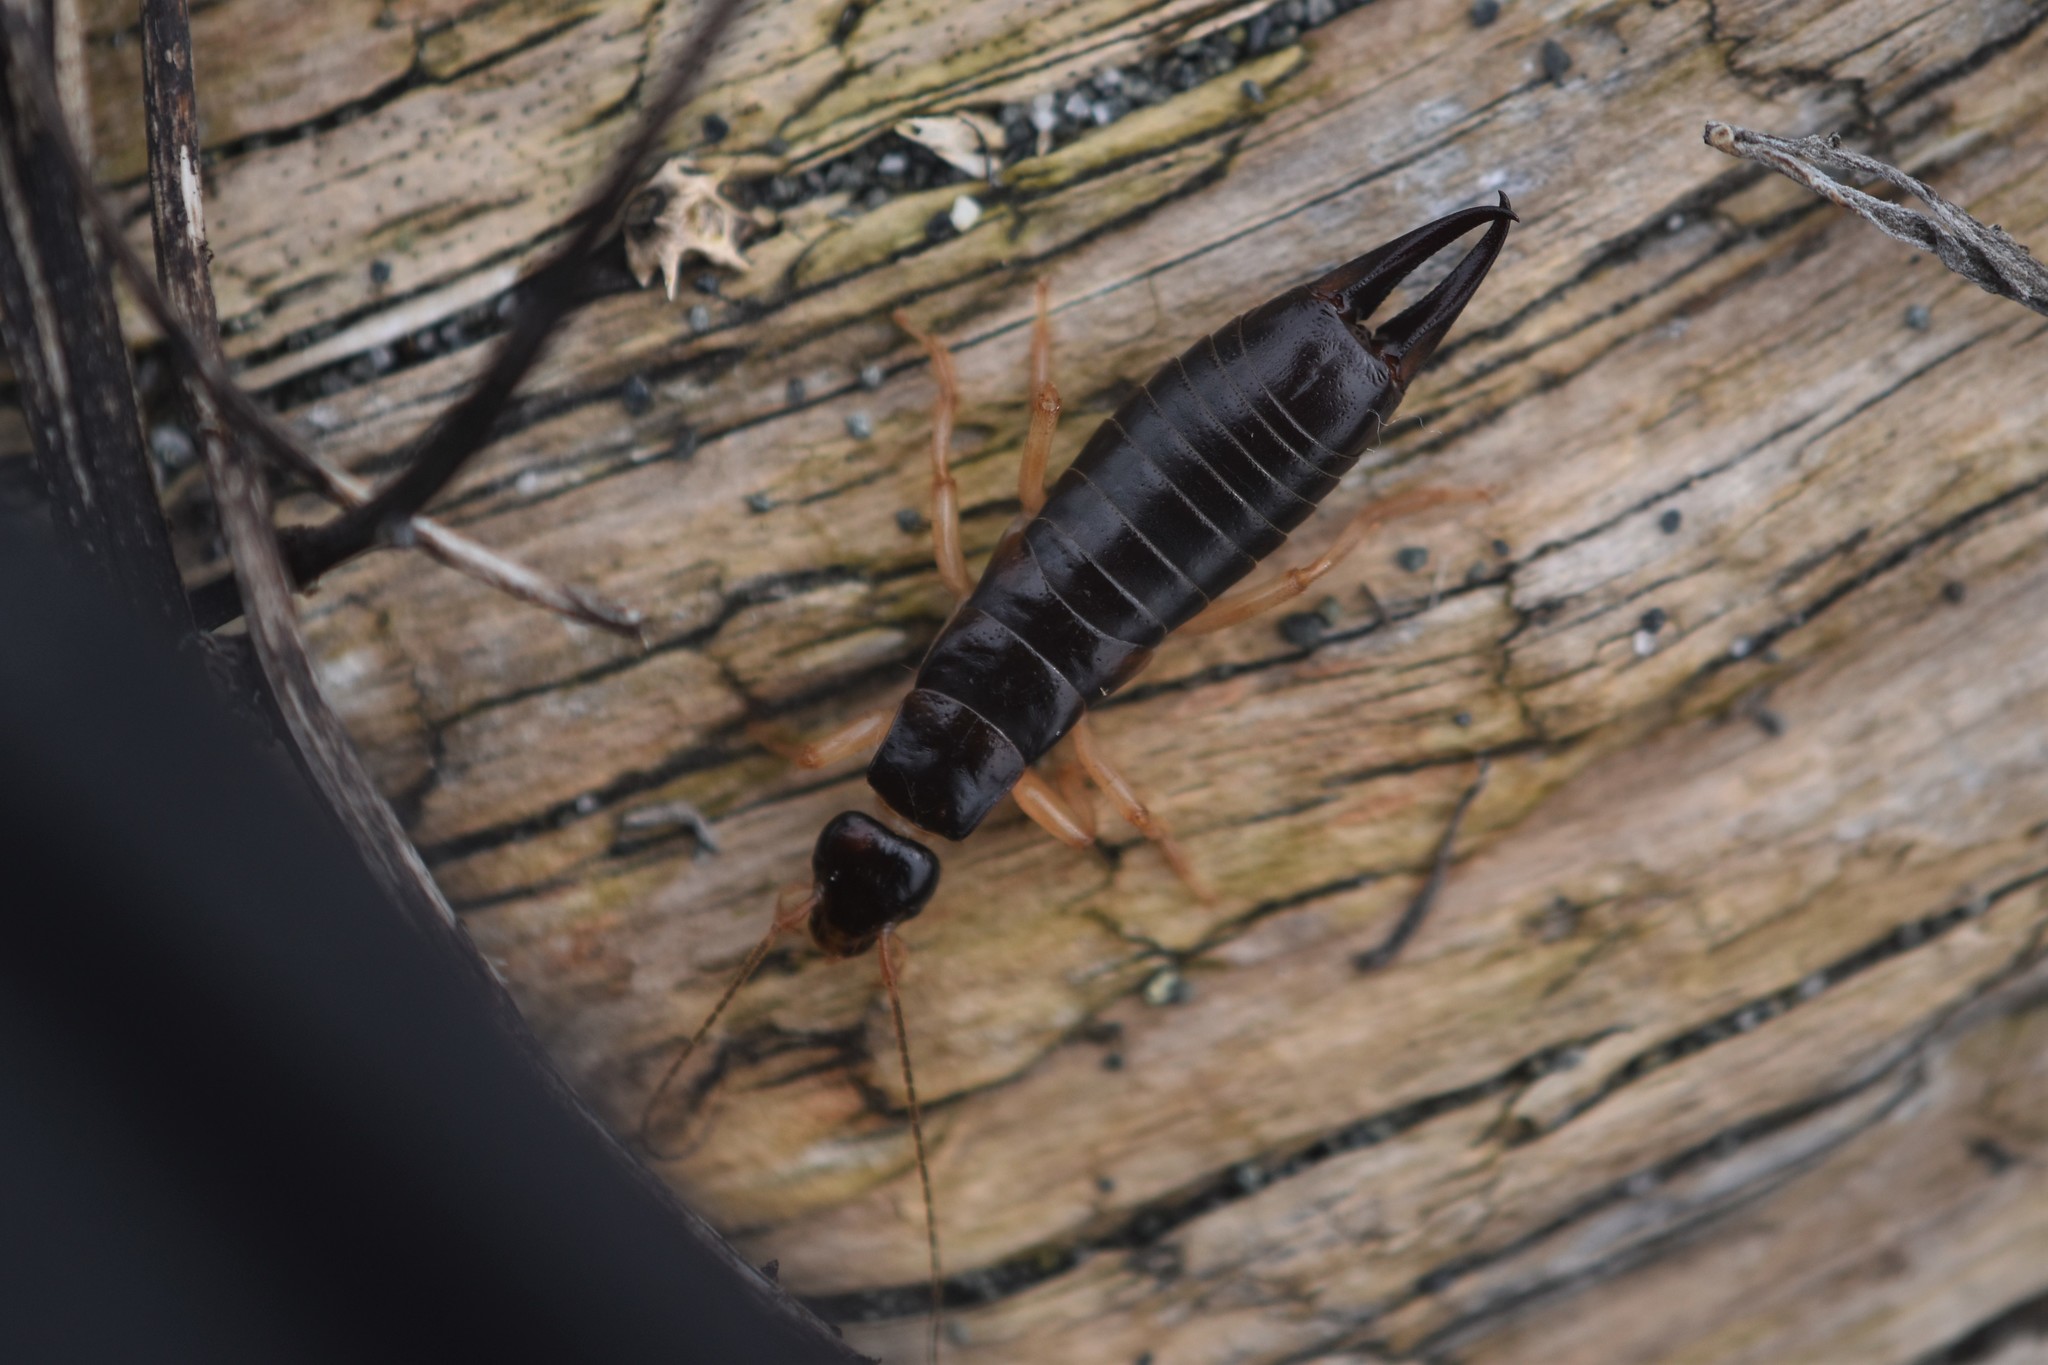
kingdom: Animalia
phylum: Arthropoda
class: Insecta
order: Dermaptera
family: Anisolabididae
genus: Anisolabis
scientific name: Anisolabis maritima
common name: Maritime earwig
